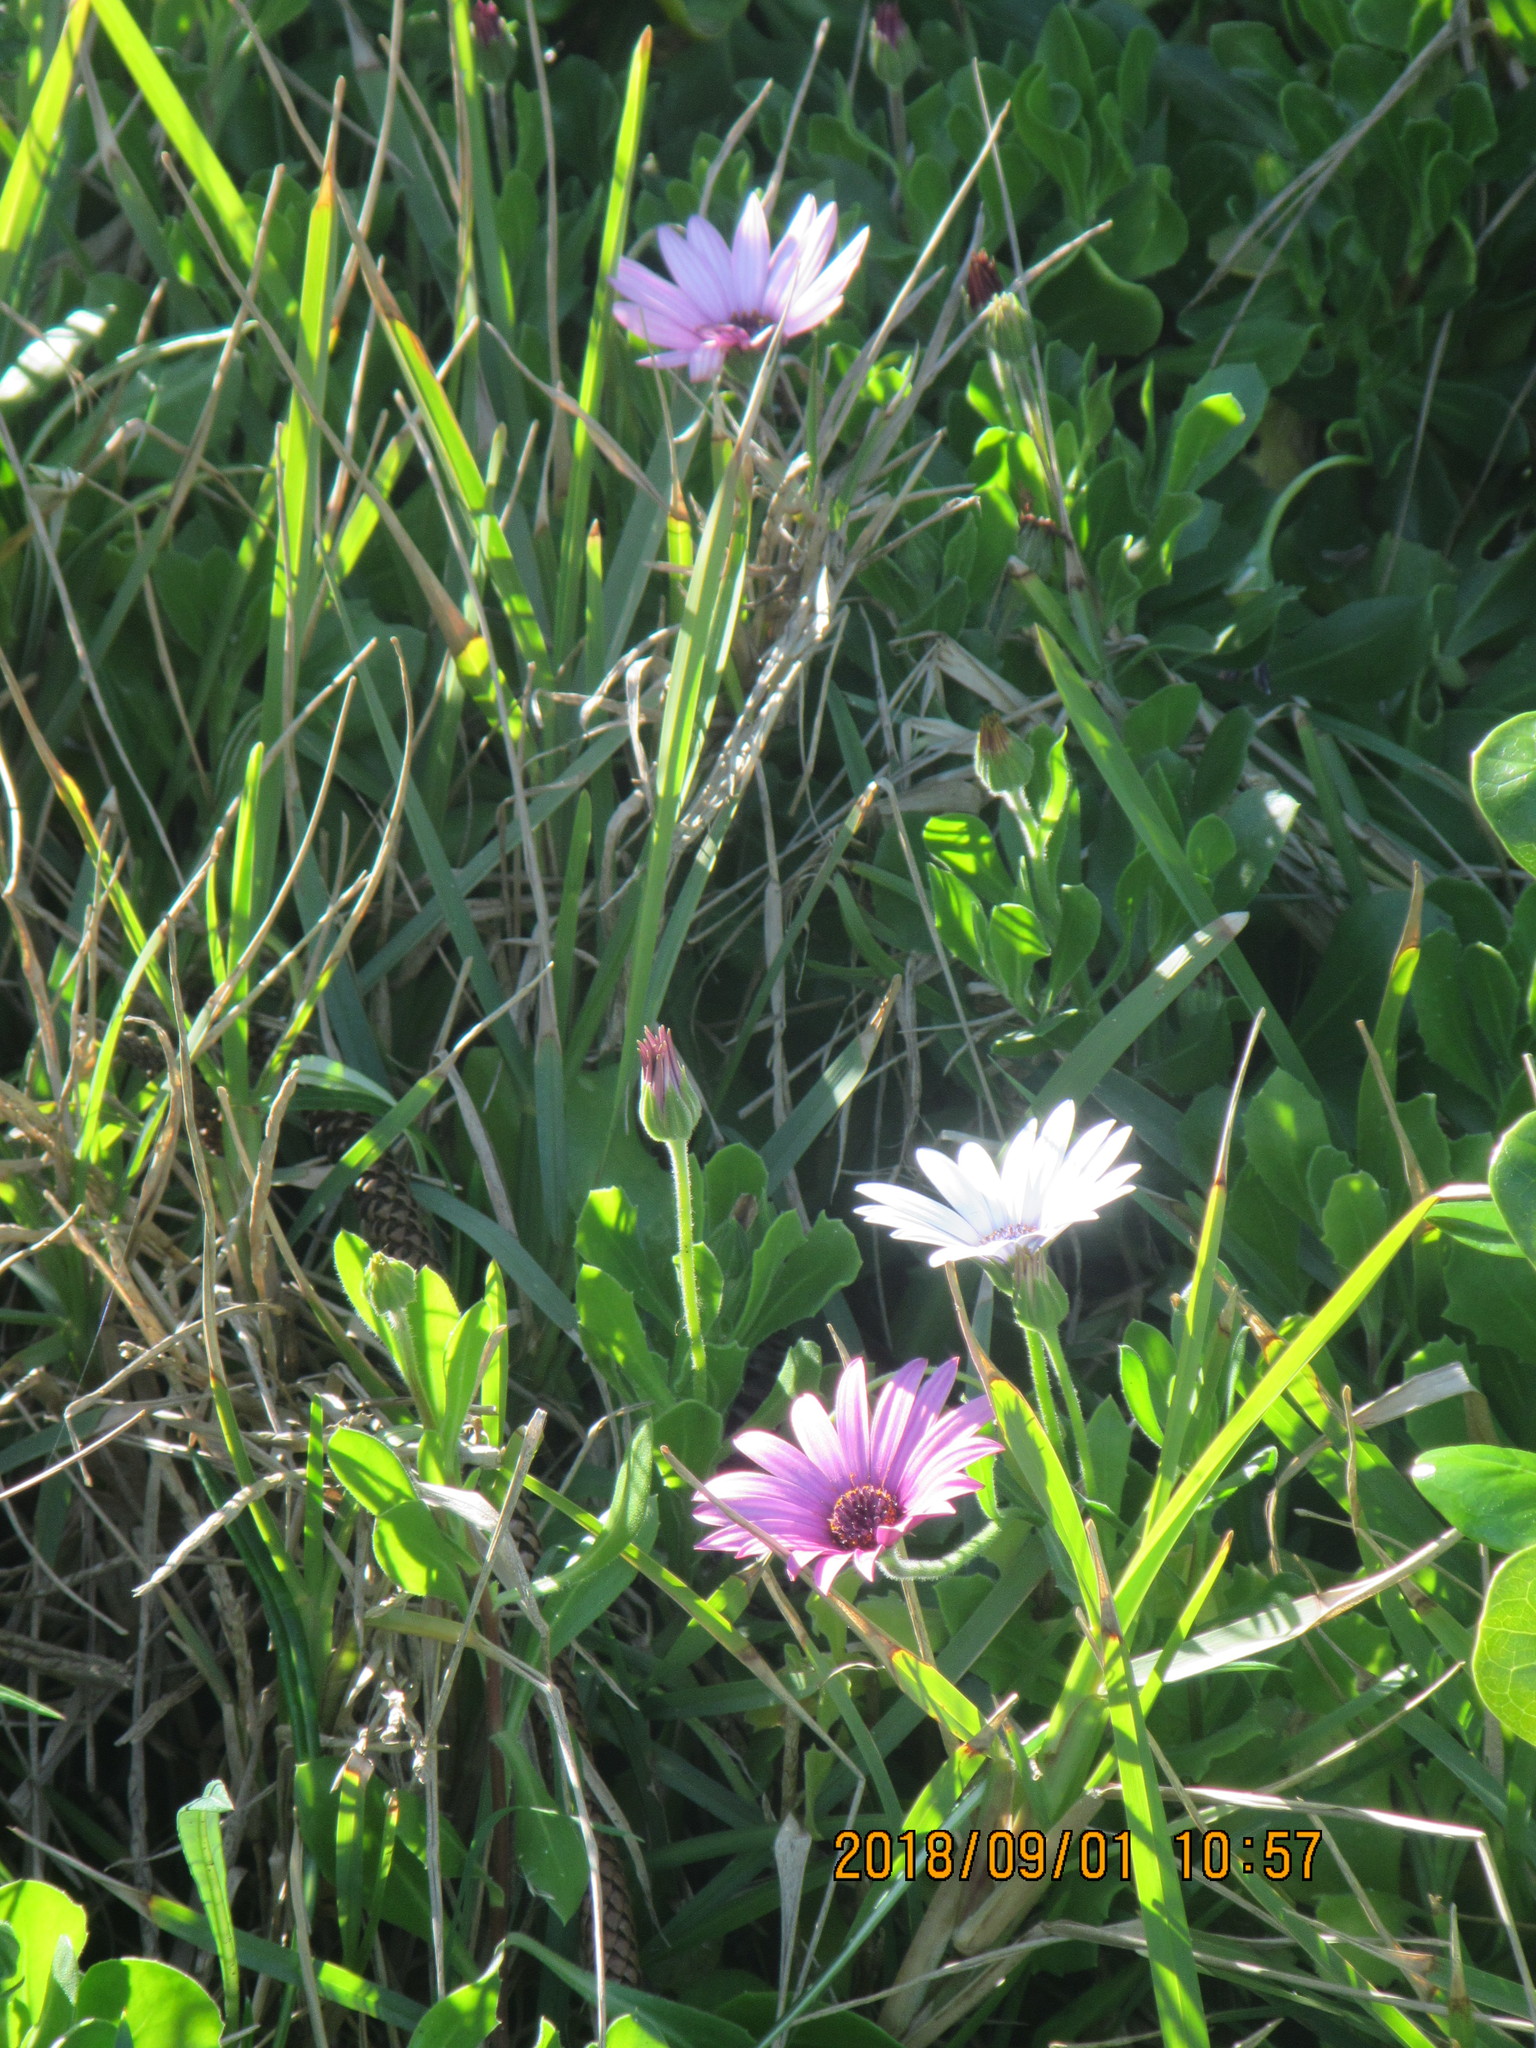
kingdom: Plantae
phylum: Tracheophyta
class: Magnoliopsida
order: Asterales
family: Asteraceae
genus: Dimorphotheca
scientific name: Dimorphotheca fruticosa
